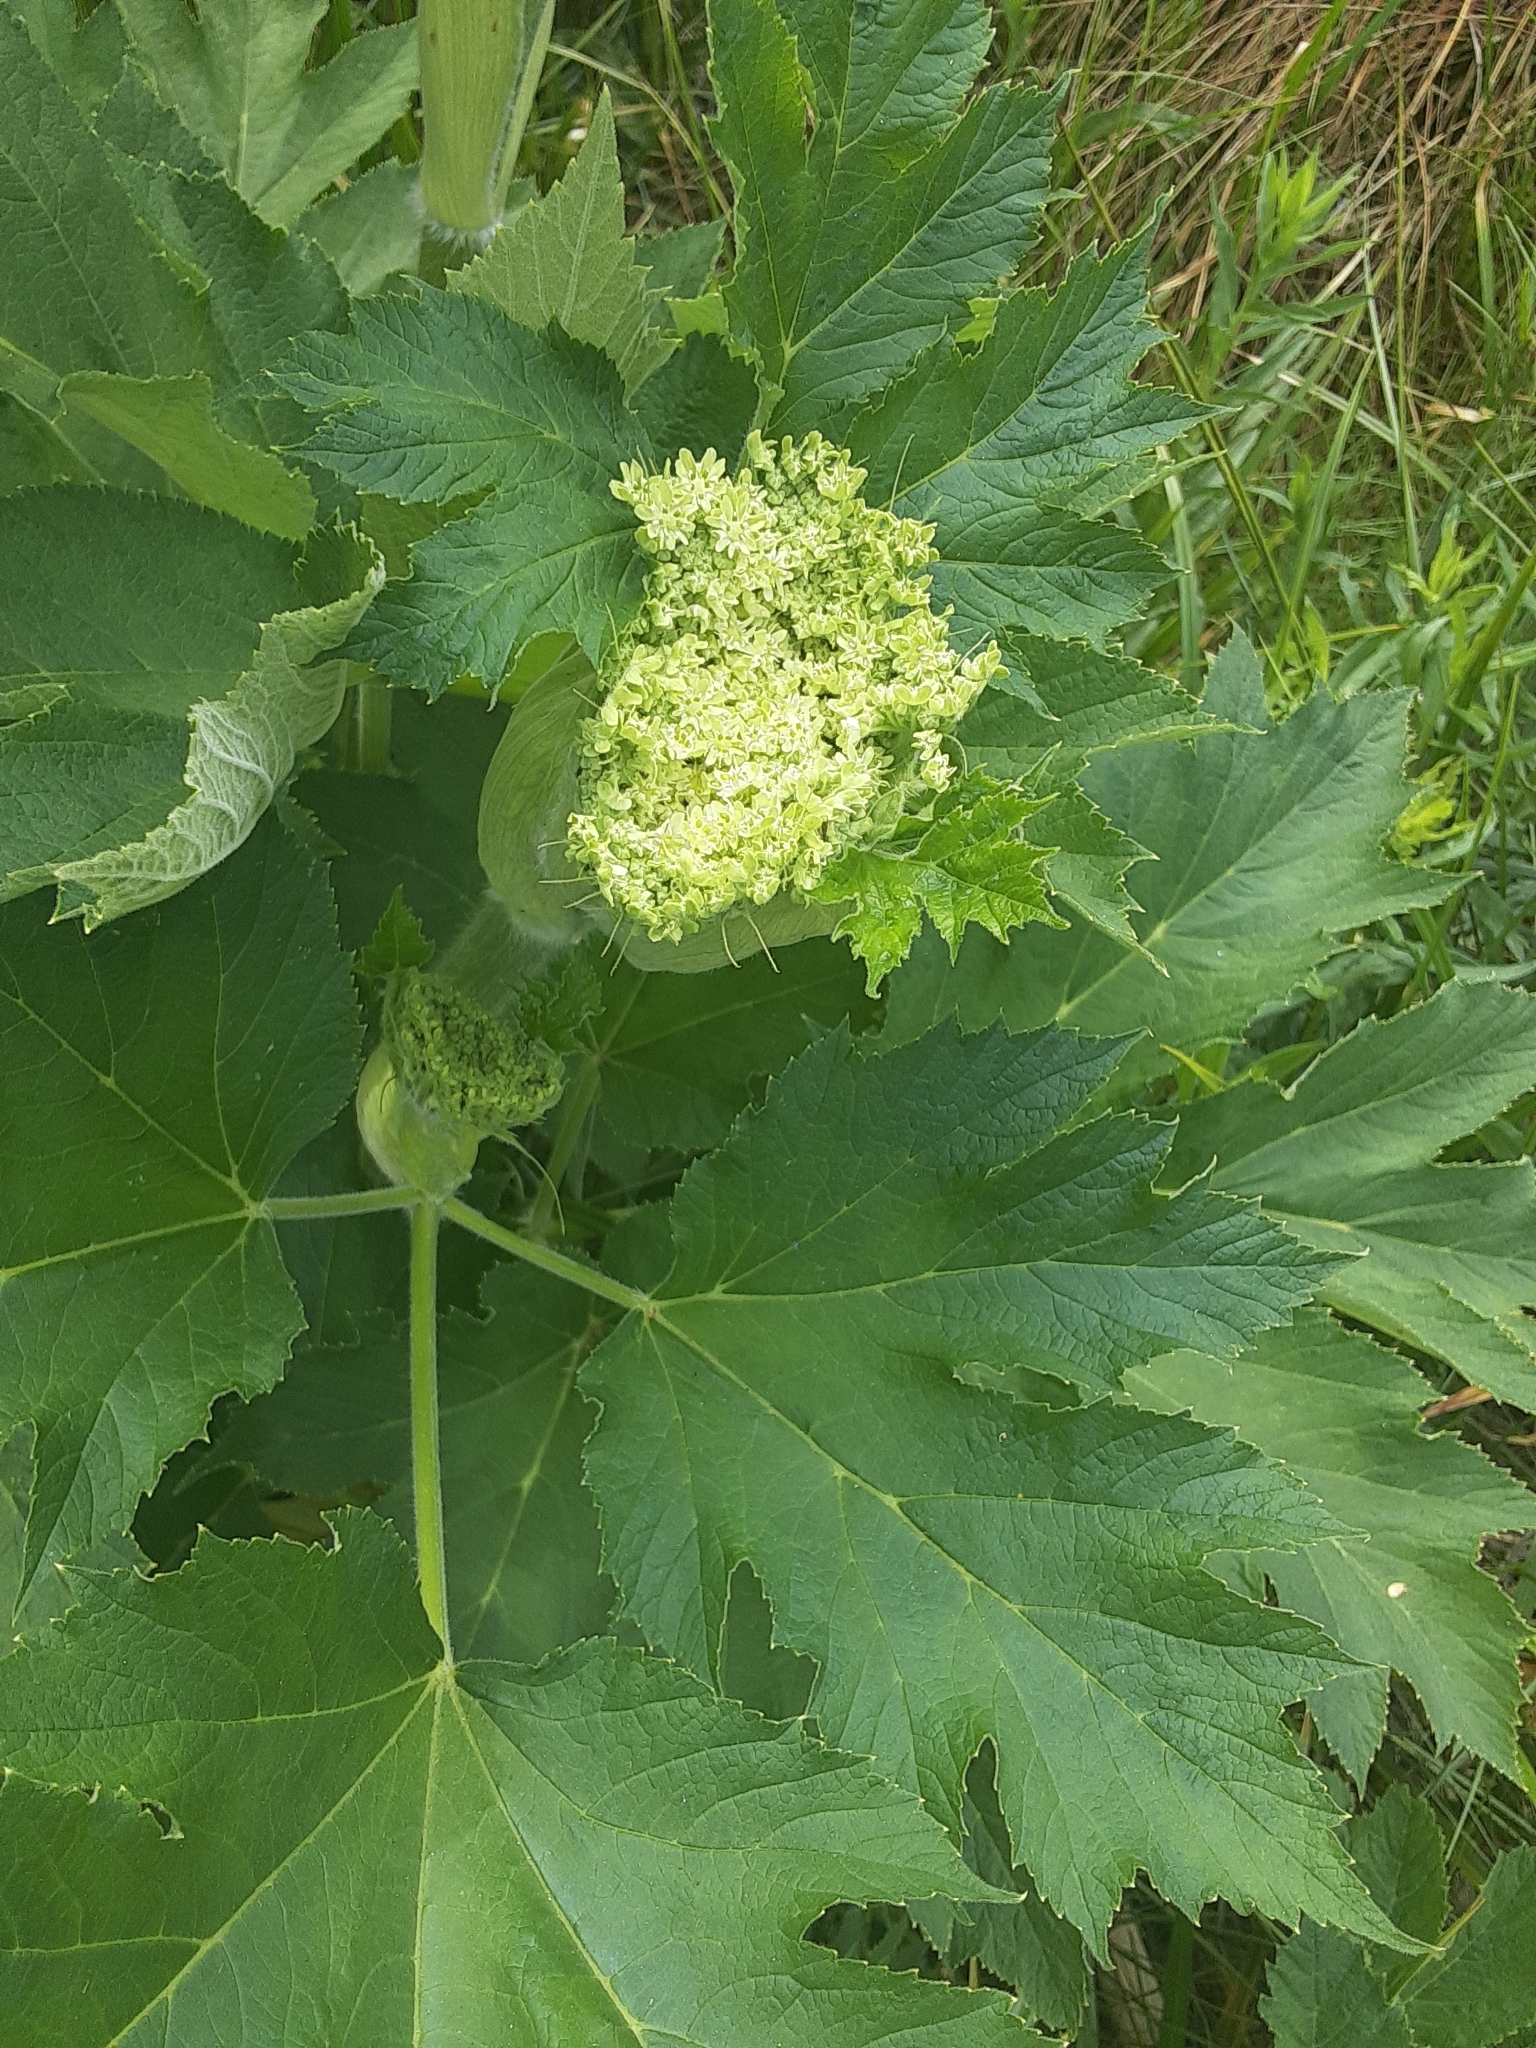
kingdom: Plantae
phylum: Tracheophyta
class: Magnoliopsida
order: Apiales
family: Apiaceae
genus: Heracleum
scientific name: Heracleum maximum
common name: American cow parsnip
